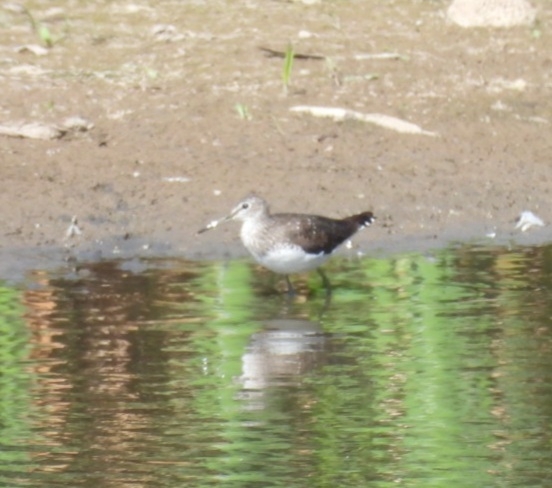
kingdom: Animalia
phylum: Chordata
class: Aves
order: Charadriiformes
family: Scolopacidae
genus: Tringa
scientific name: Tringa ochropus
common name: Green sandpiper
